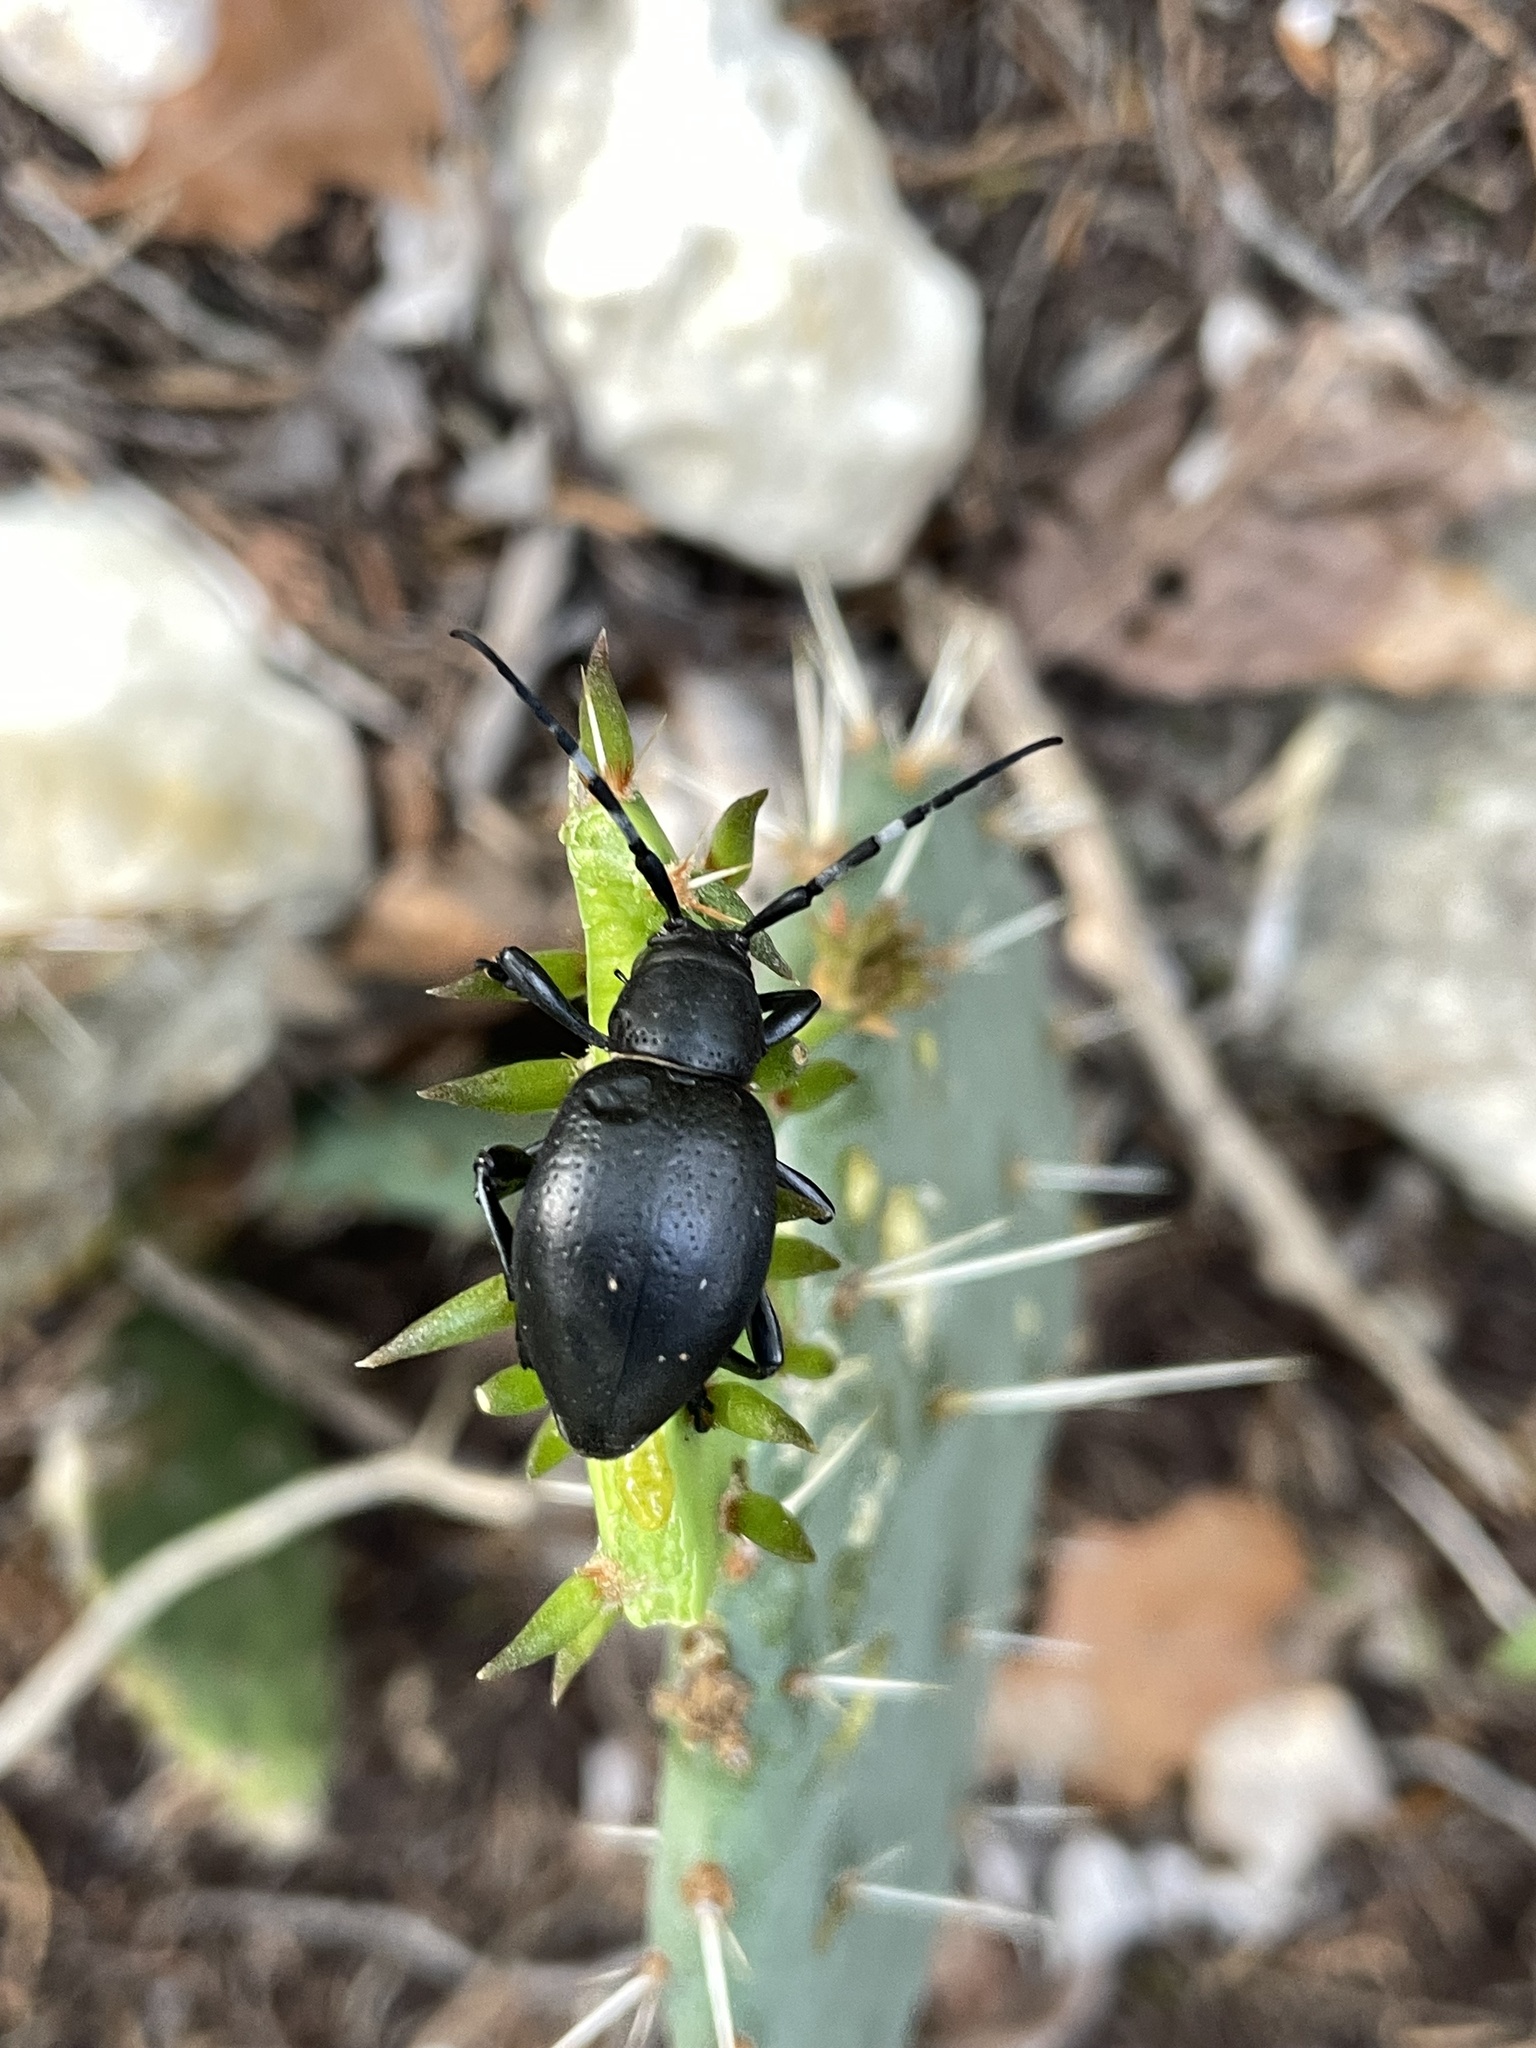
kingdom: Animalia
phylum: Arthropoda
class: Insecta
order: Coleoptera
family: Cerambycidae
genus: Moneilema
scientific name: Moneilema armatum
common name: Long-horned beetle
